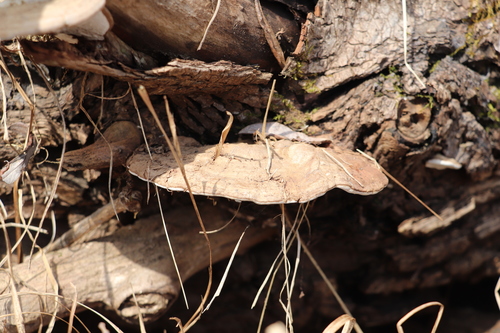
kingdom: Fungi
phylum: Basidiomycota
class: Agaricomycetes
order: Polyporales
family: Polyporaceae
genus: Ganoderma
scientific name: Ganoderma applanatum
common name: Artist's bracket
